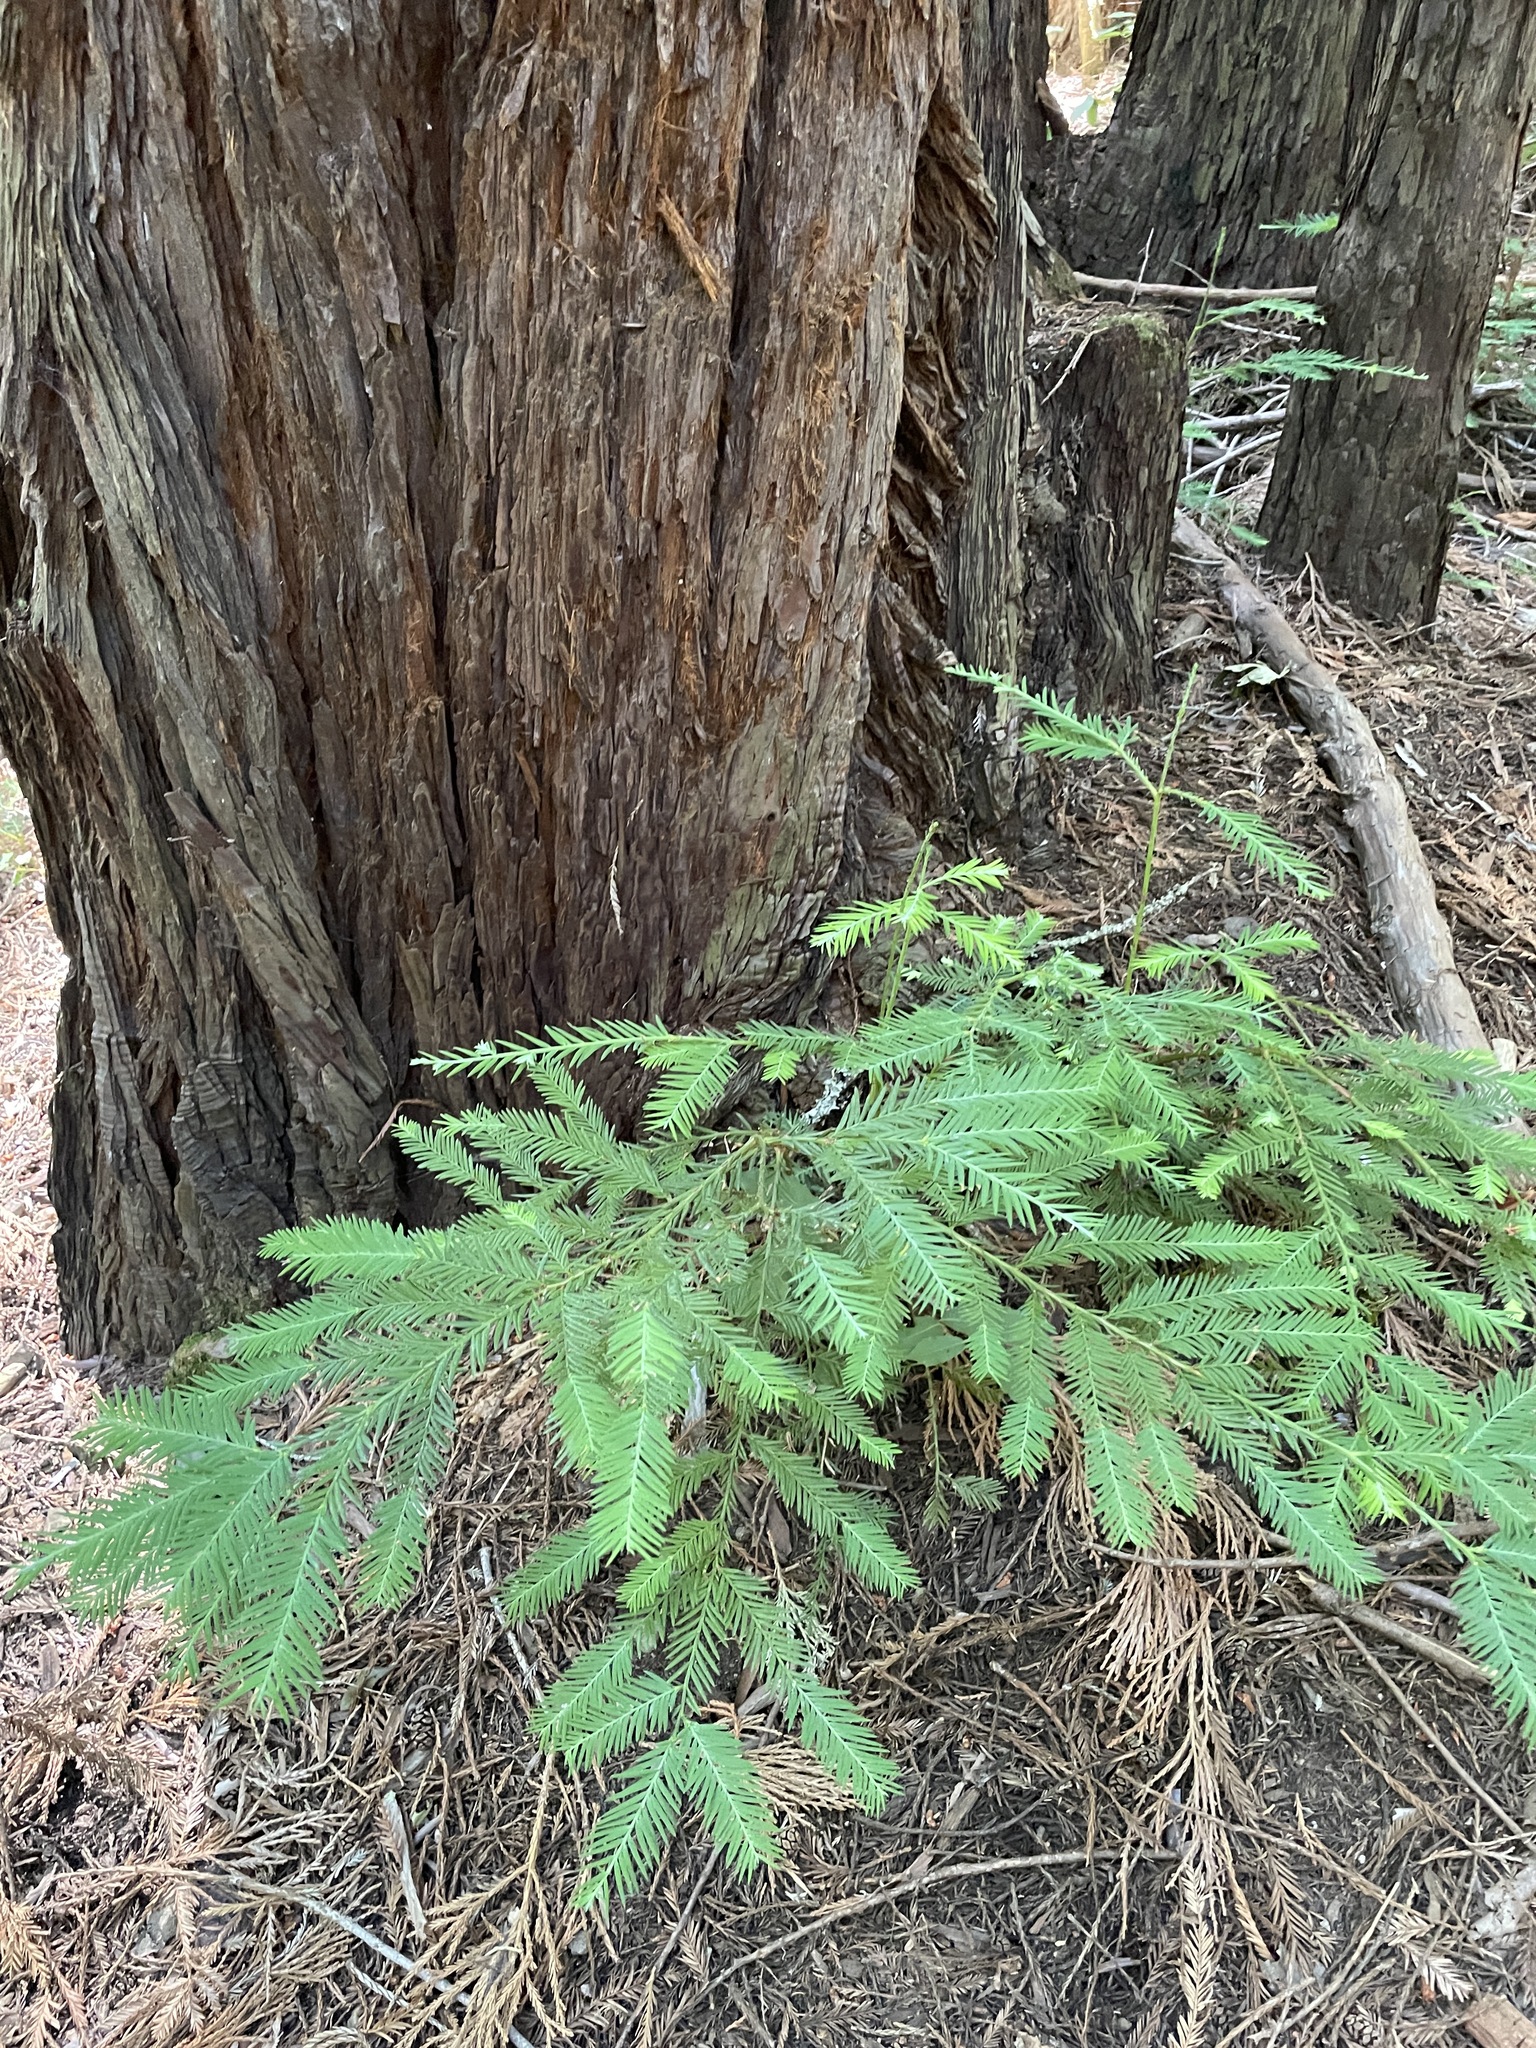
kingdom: Plantae
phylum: Tracheophyta
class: Pinopsida
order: Pinales
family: Cupressaceae
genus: Sequoia
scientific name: Sequoia sempervirens
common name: Coast redwood
